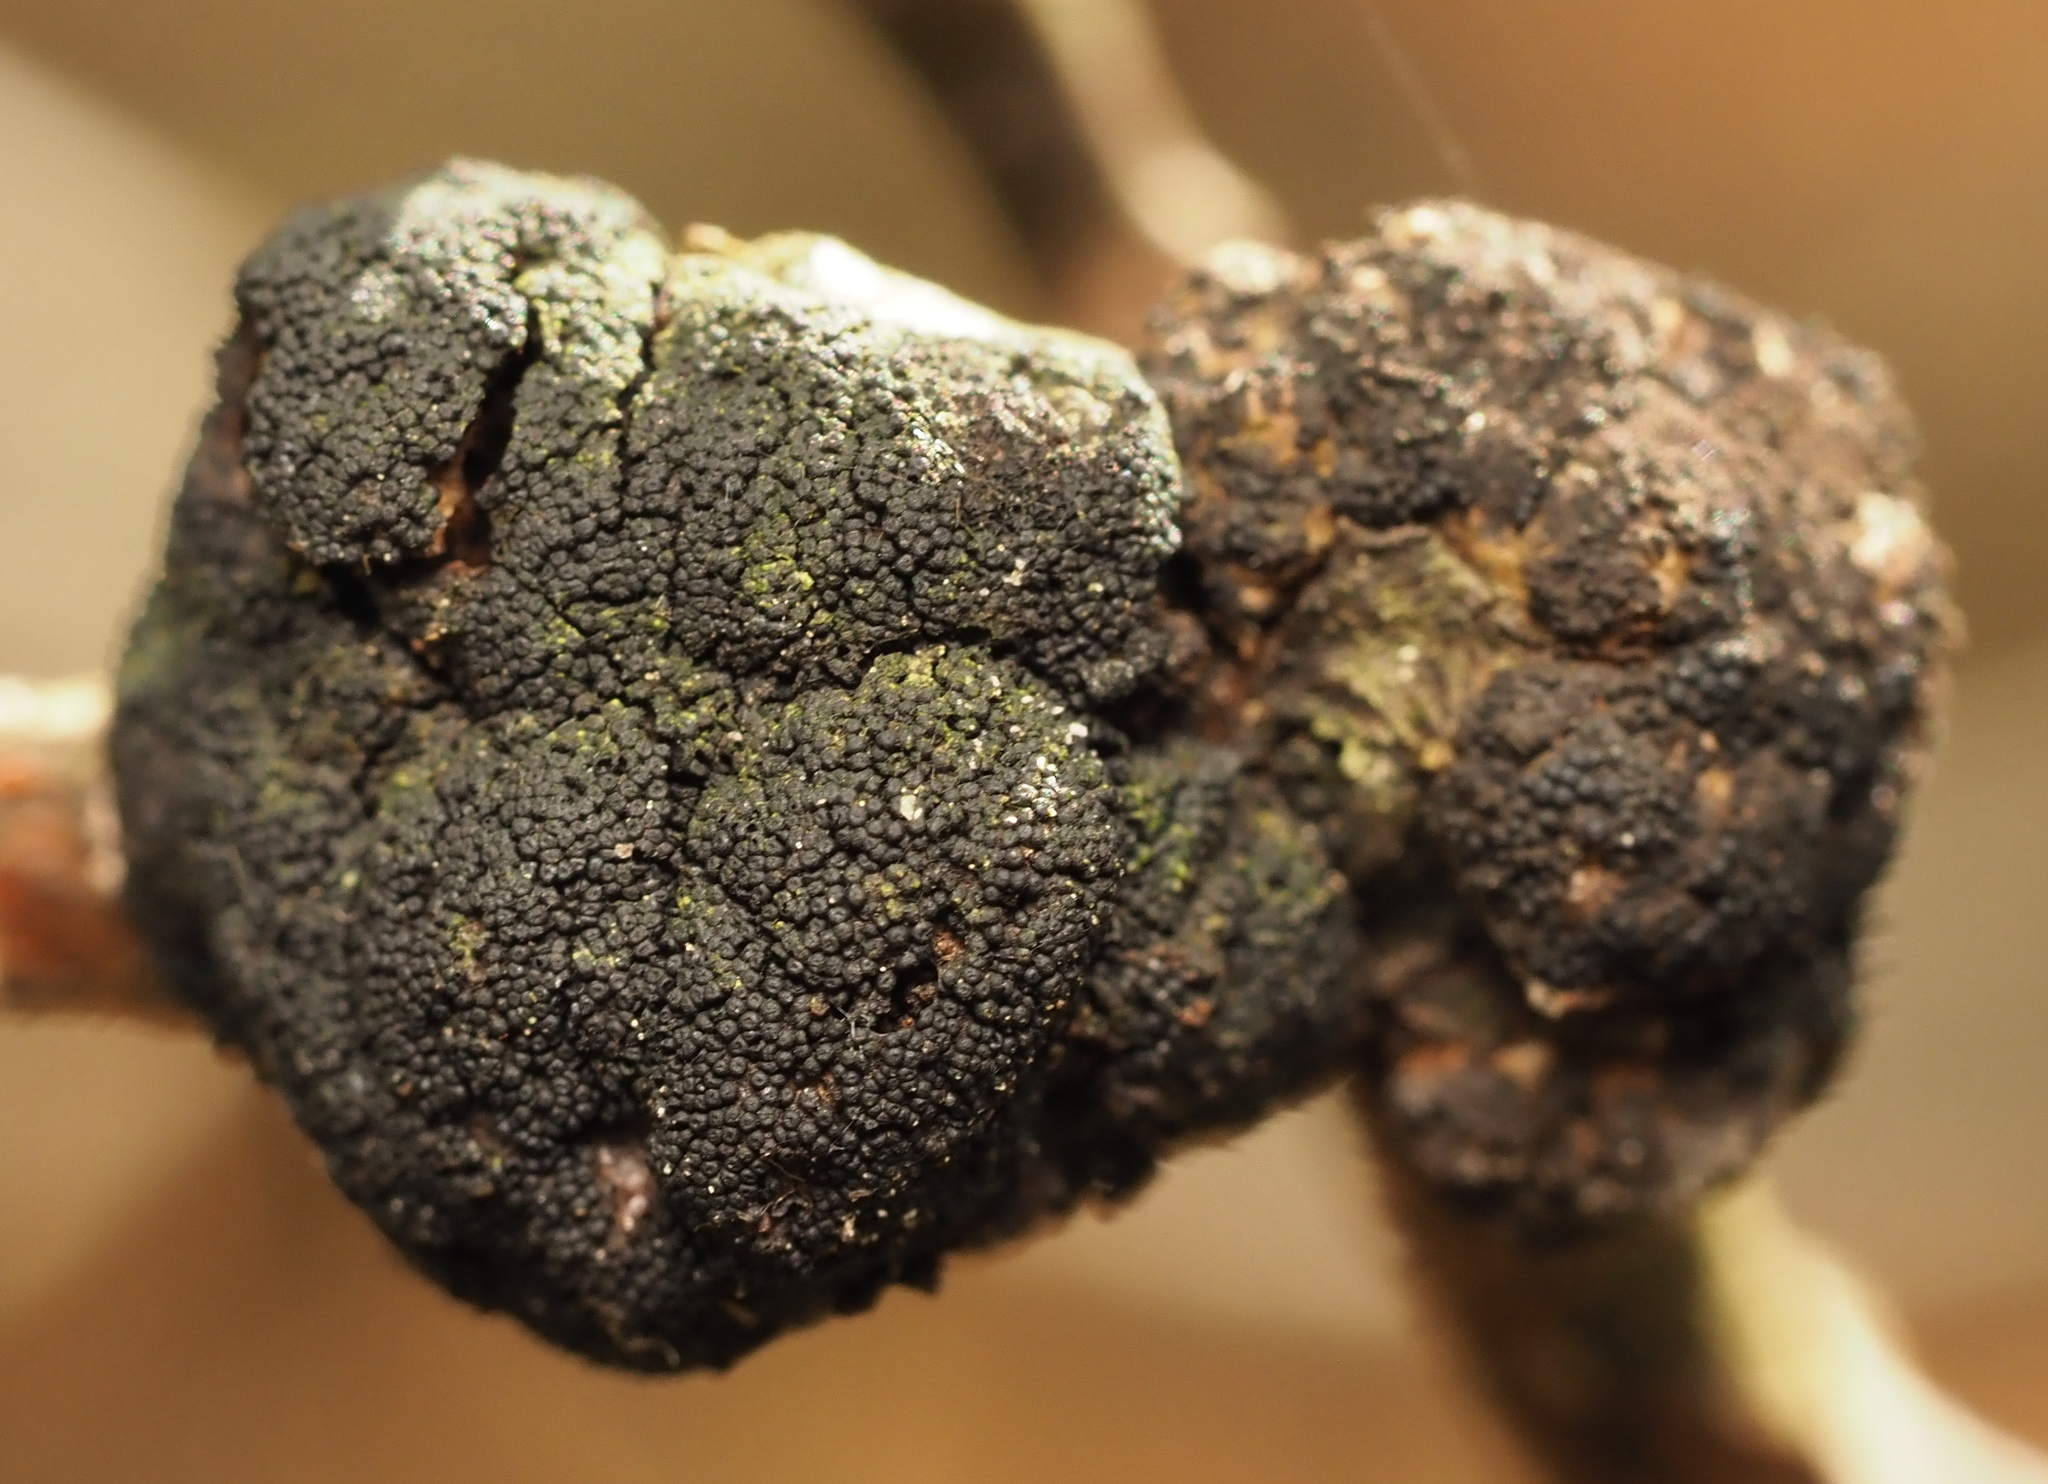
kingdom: Fungi
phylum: Ascomycota
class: Dothideomycetes
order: Venturiales
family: Venturiaceae
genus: Apiosporina
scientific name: Apiosporina morbosa
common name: Black knot
